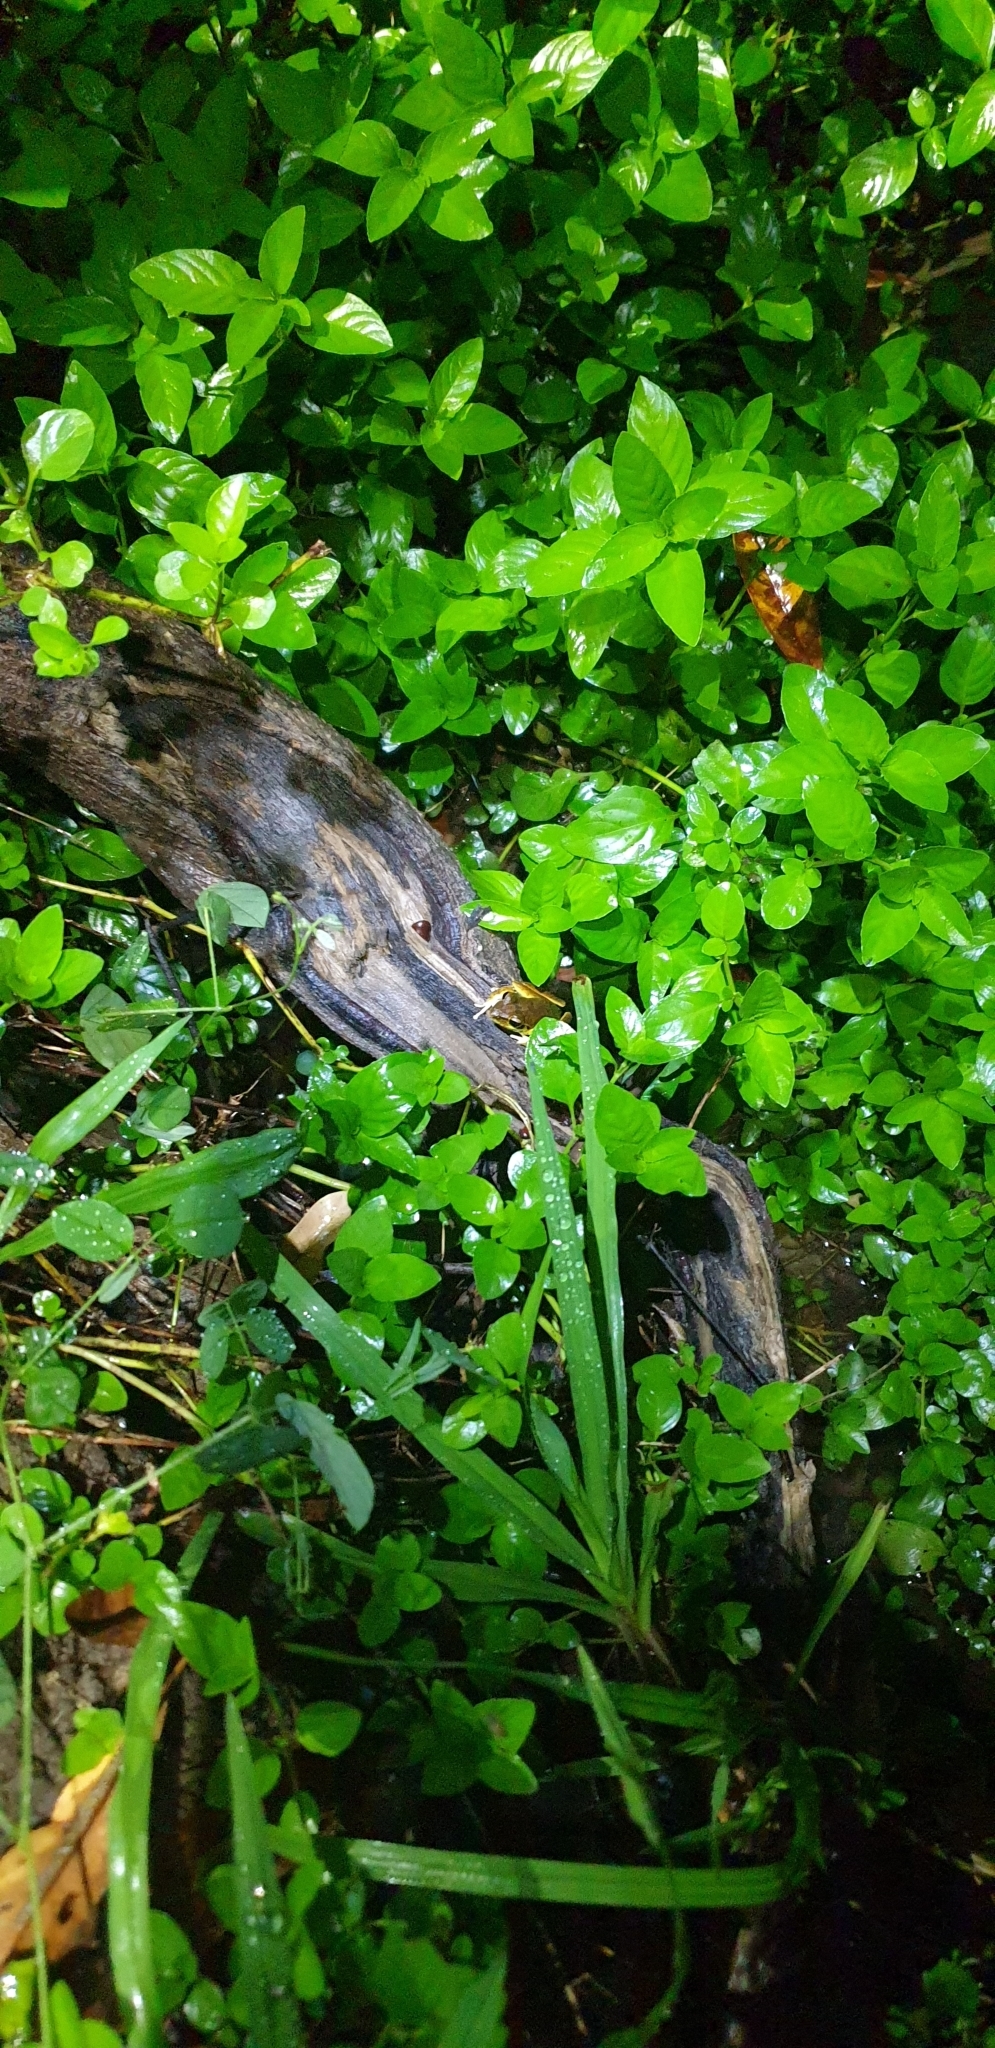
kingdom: Animalia
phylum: Chordata
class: Amphibia
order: Anura
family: Pelodryadidae
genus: Ranoidea
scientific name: Ranoidea wilcoxii
